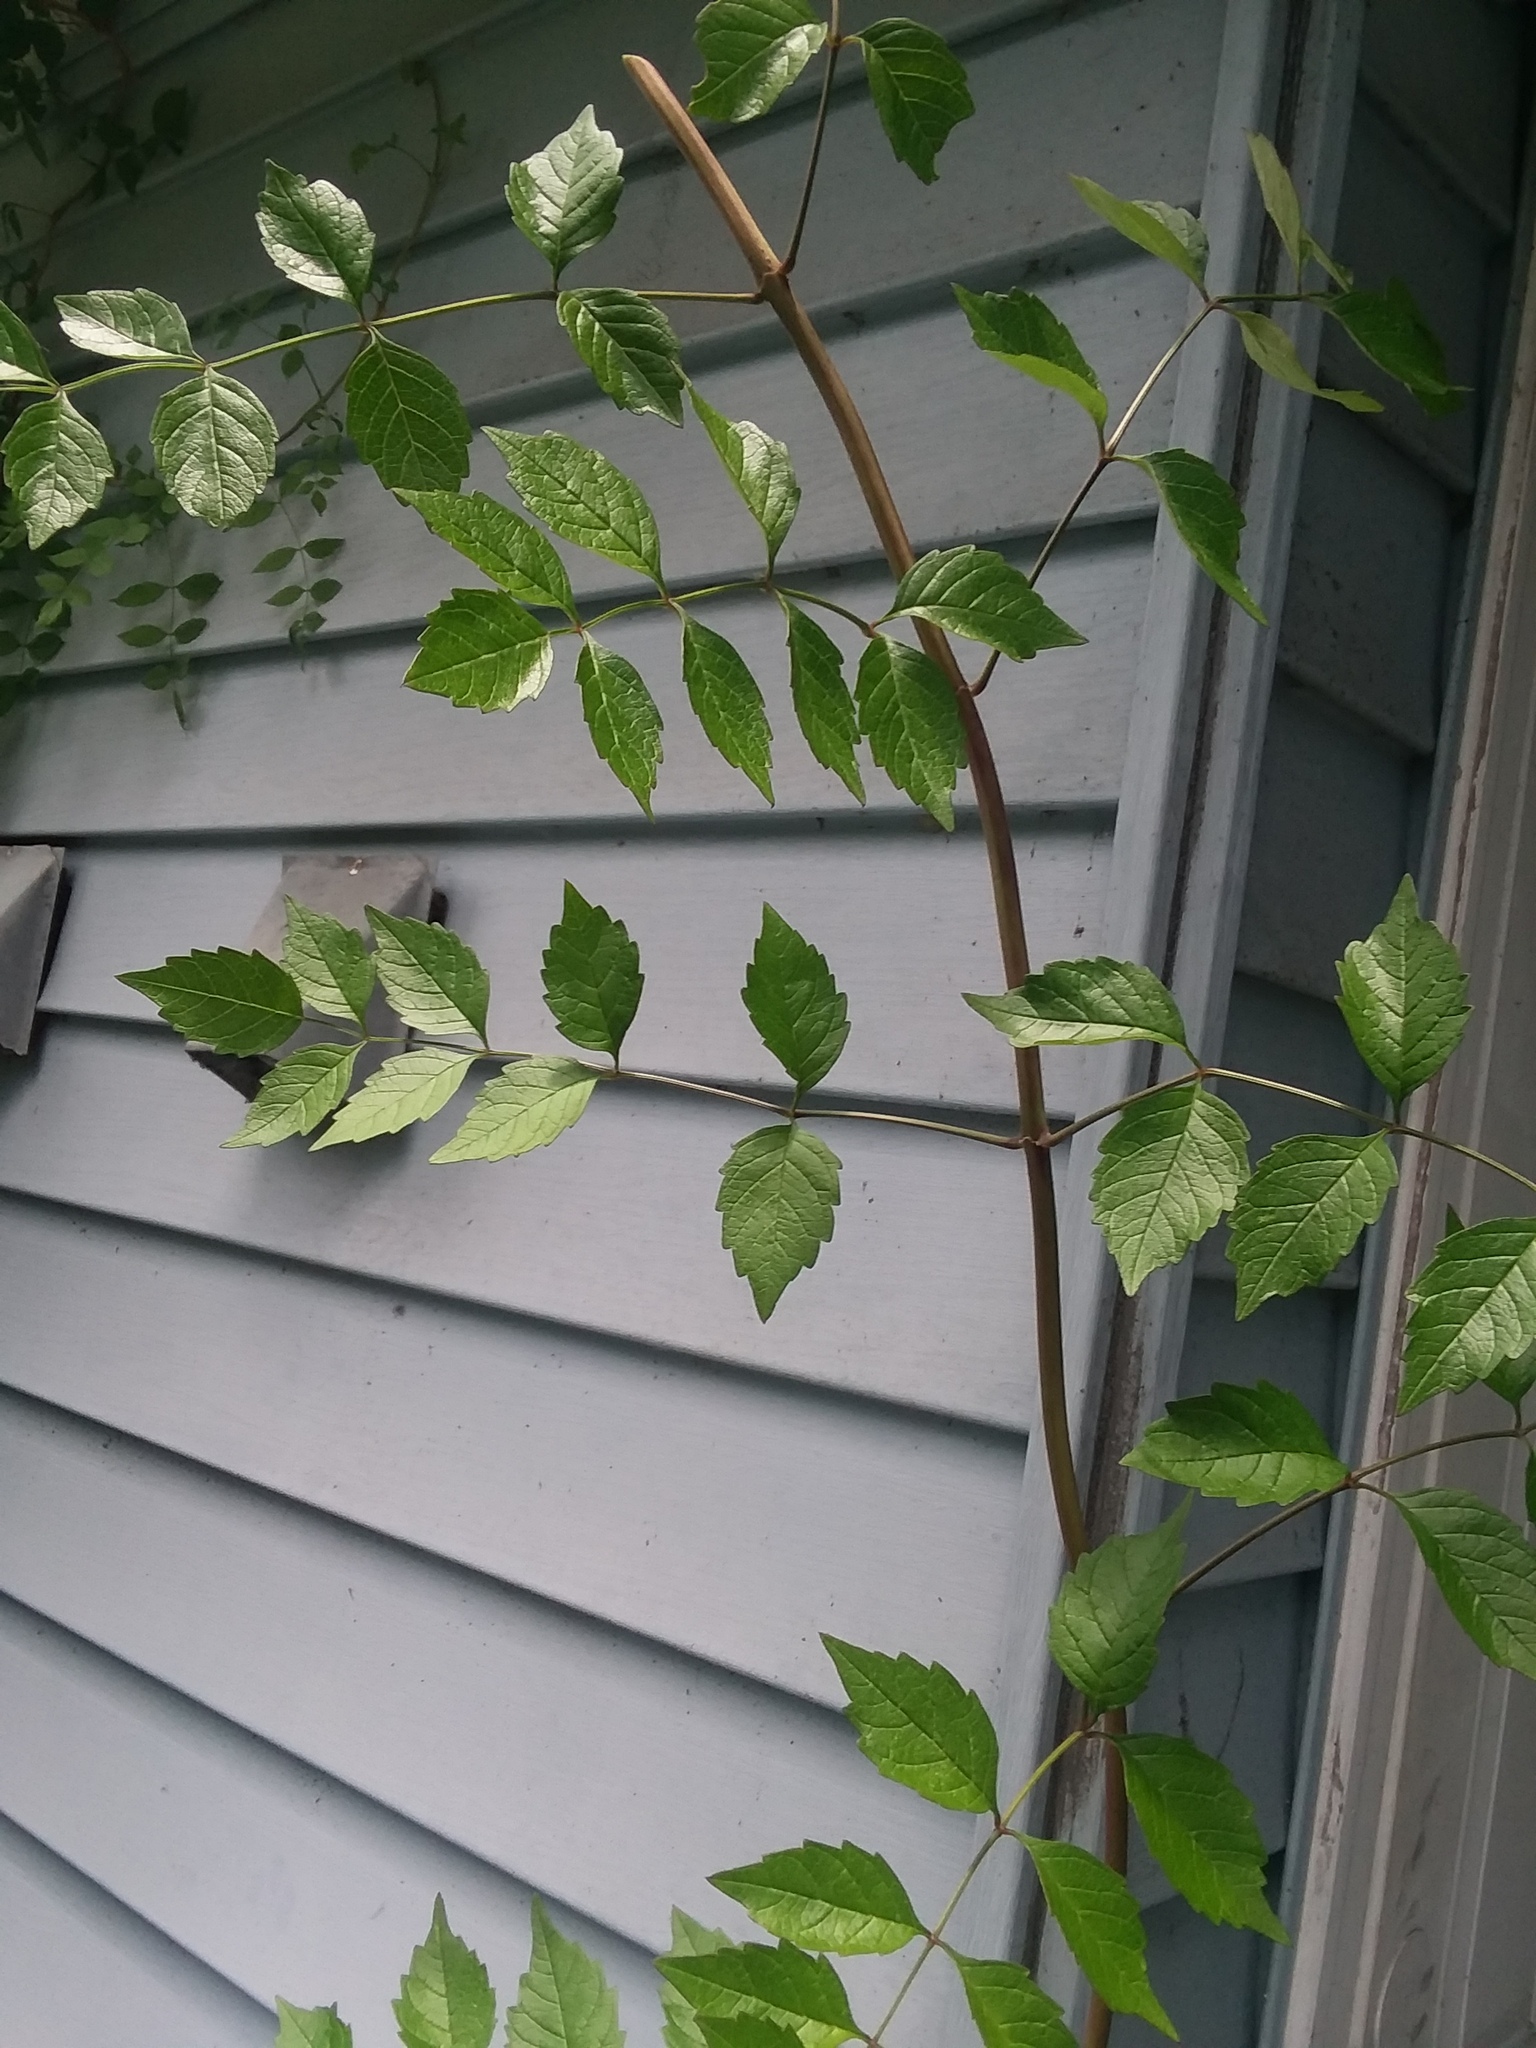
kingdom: Plantae
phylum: Tracheophyta
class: Magnoliopsida
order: Lamiales
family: Bignoniaceae
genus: Campsis
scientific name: Campsis radicans
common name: Trumpet-creeper
